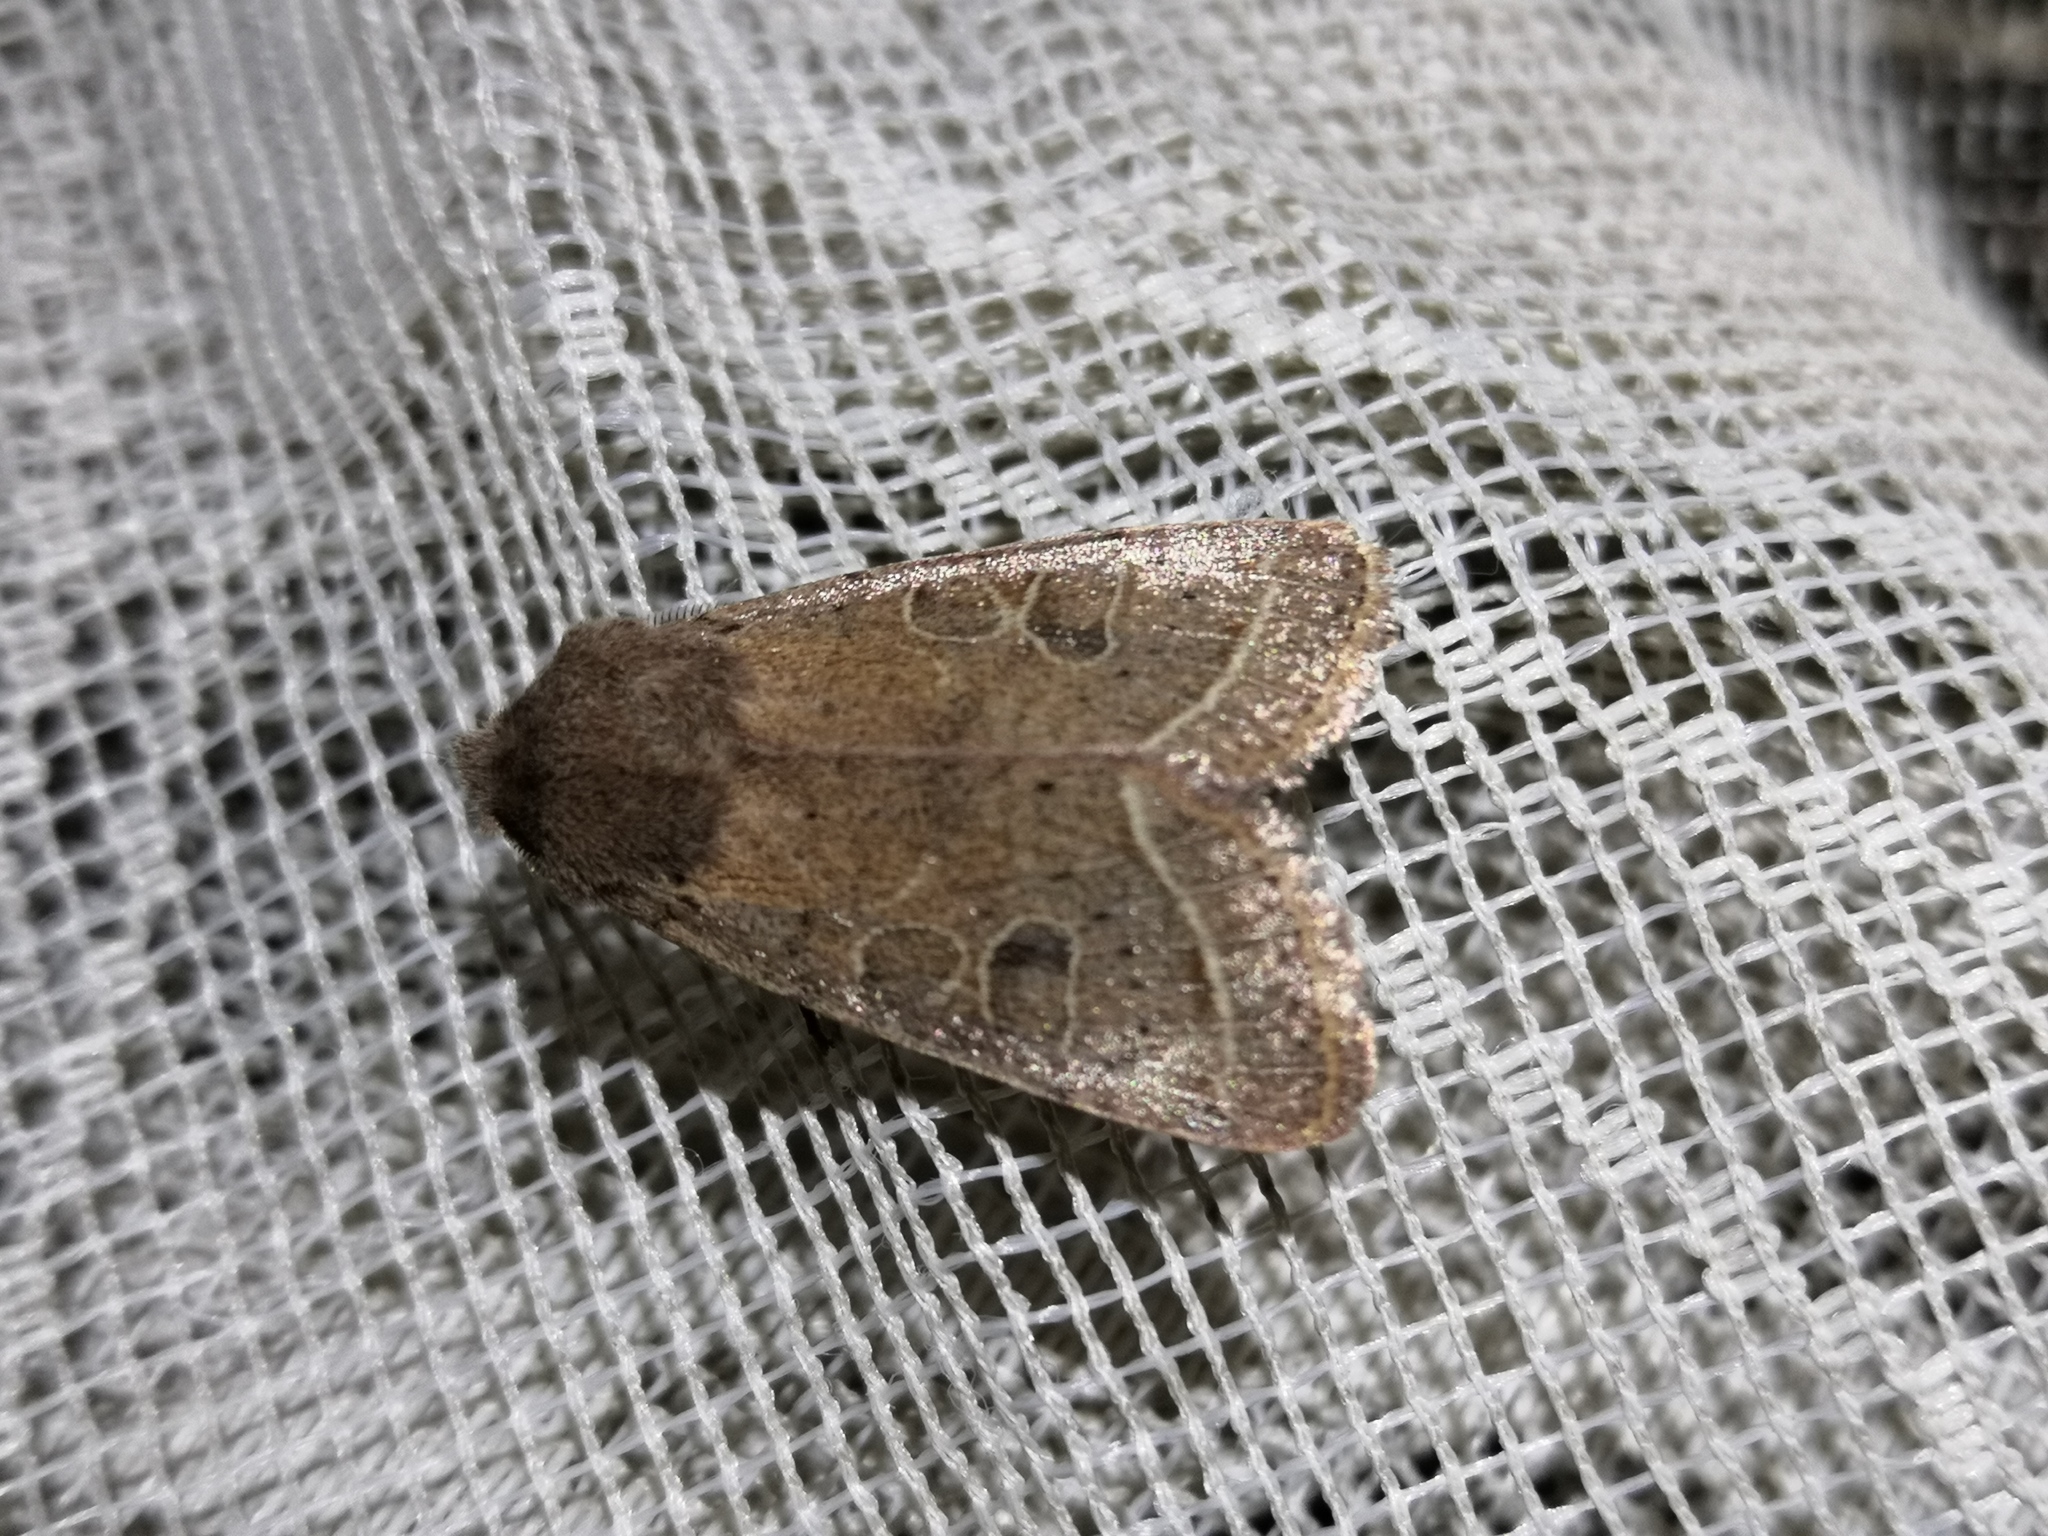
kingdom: Animalia
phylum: Arthropoda
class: Insecta
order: Lepidoptera
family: Noctuidae
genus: Orthosia
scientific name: Orthosia cerasi
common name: Common quaker
